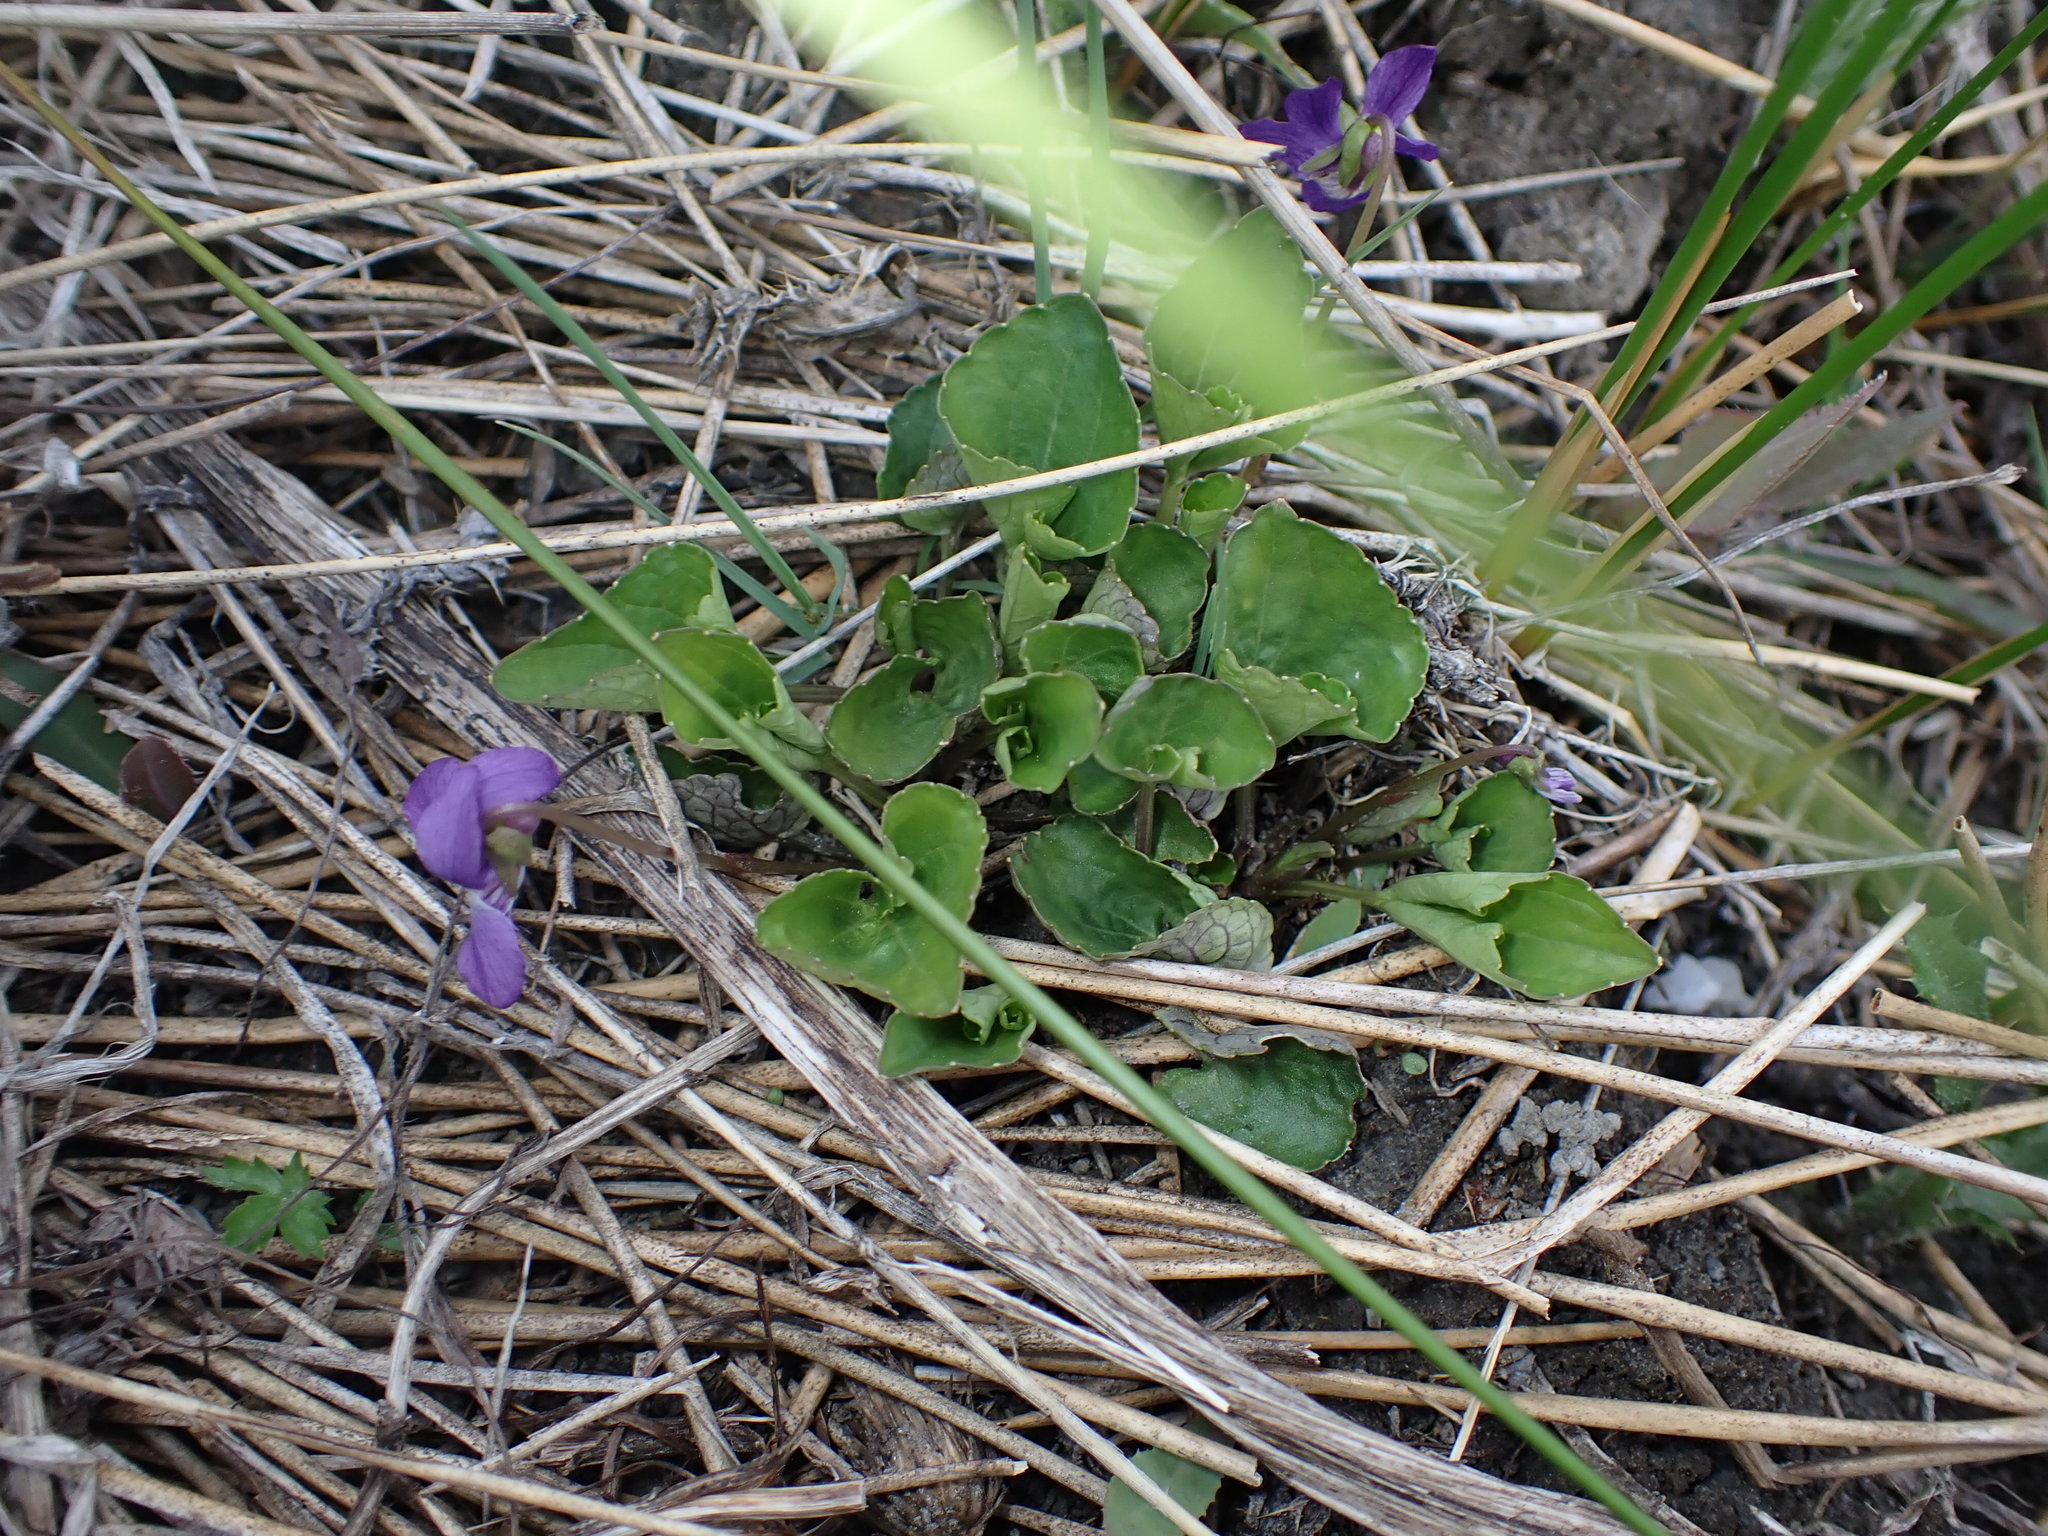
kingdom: Plantae
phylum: Tracheophyta
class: Magnoliopsida
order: Malpighiales
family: Violaceae
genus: Viola
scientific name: Viola nephrophylla
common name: Blue meadow violet
